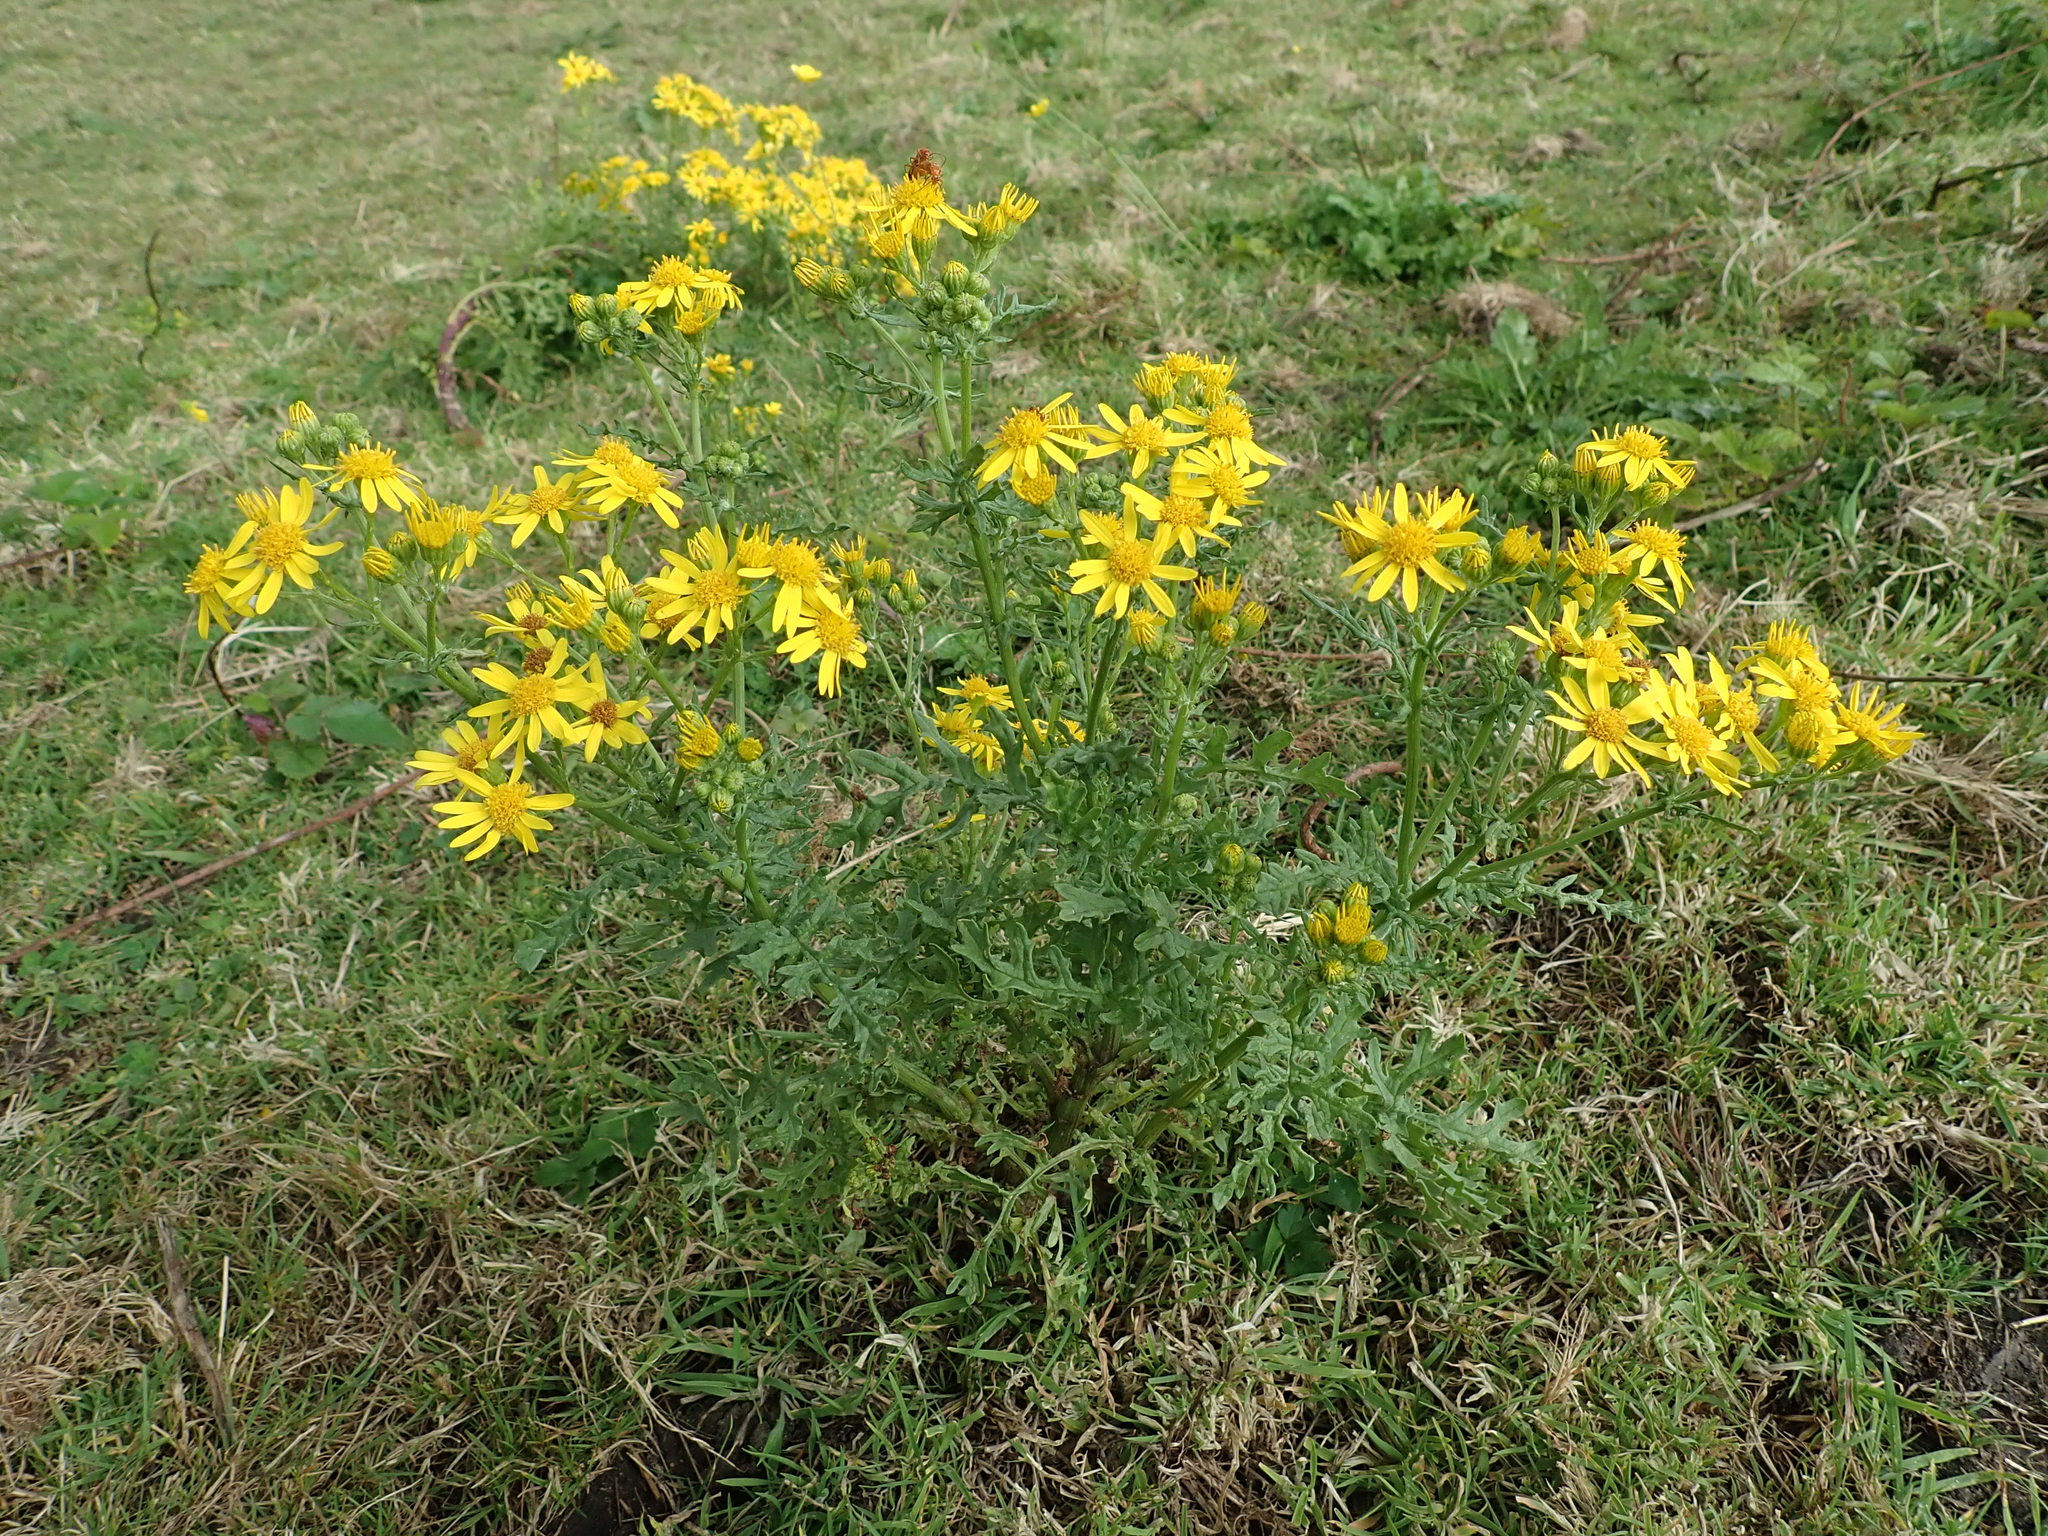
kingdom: Plantae
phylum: Tracheophyta
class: Magnoliopsida
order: Asterales
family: Asteraceae
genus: Jacobaea
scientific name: Jacobaea vulgaris
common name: Stinking willie
